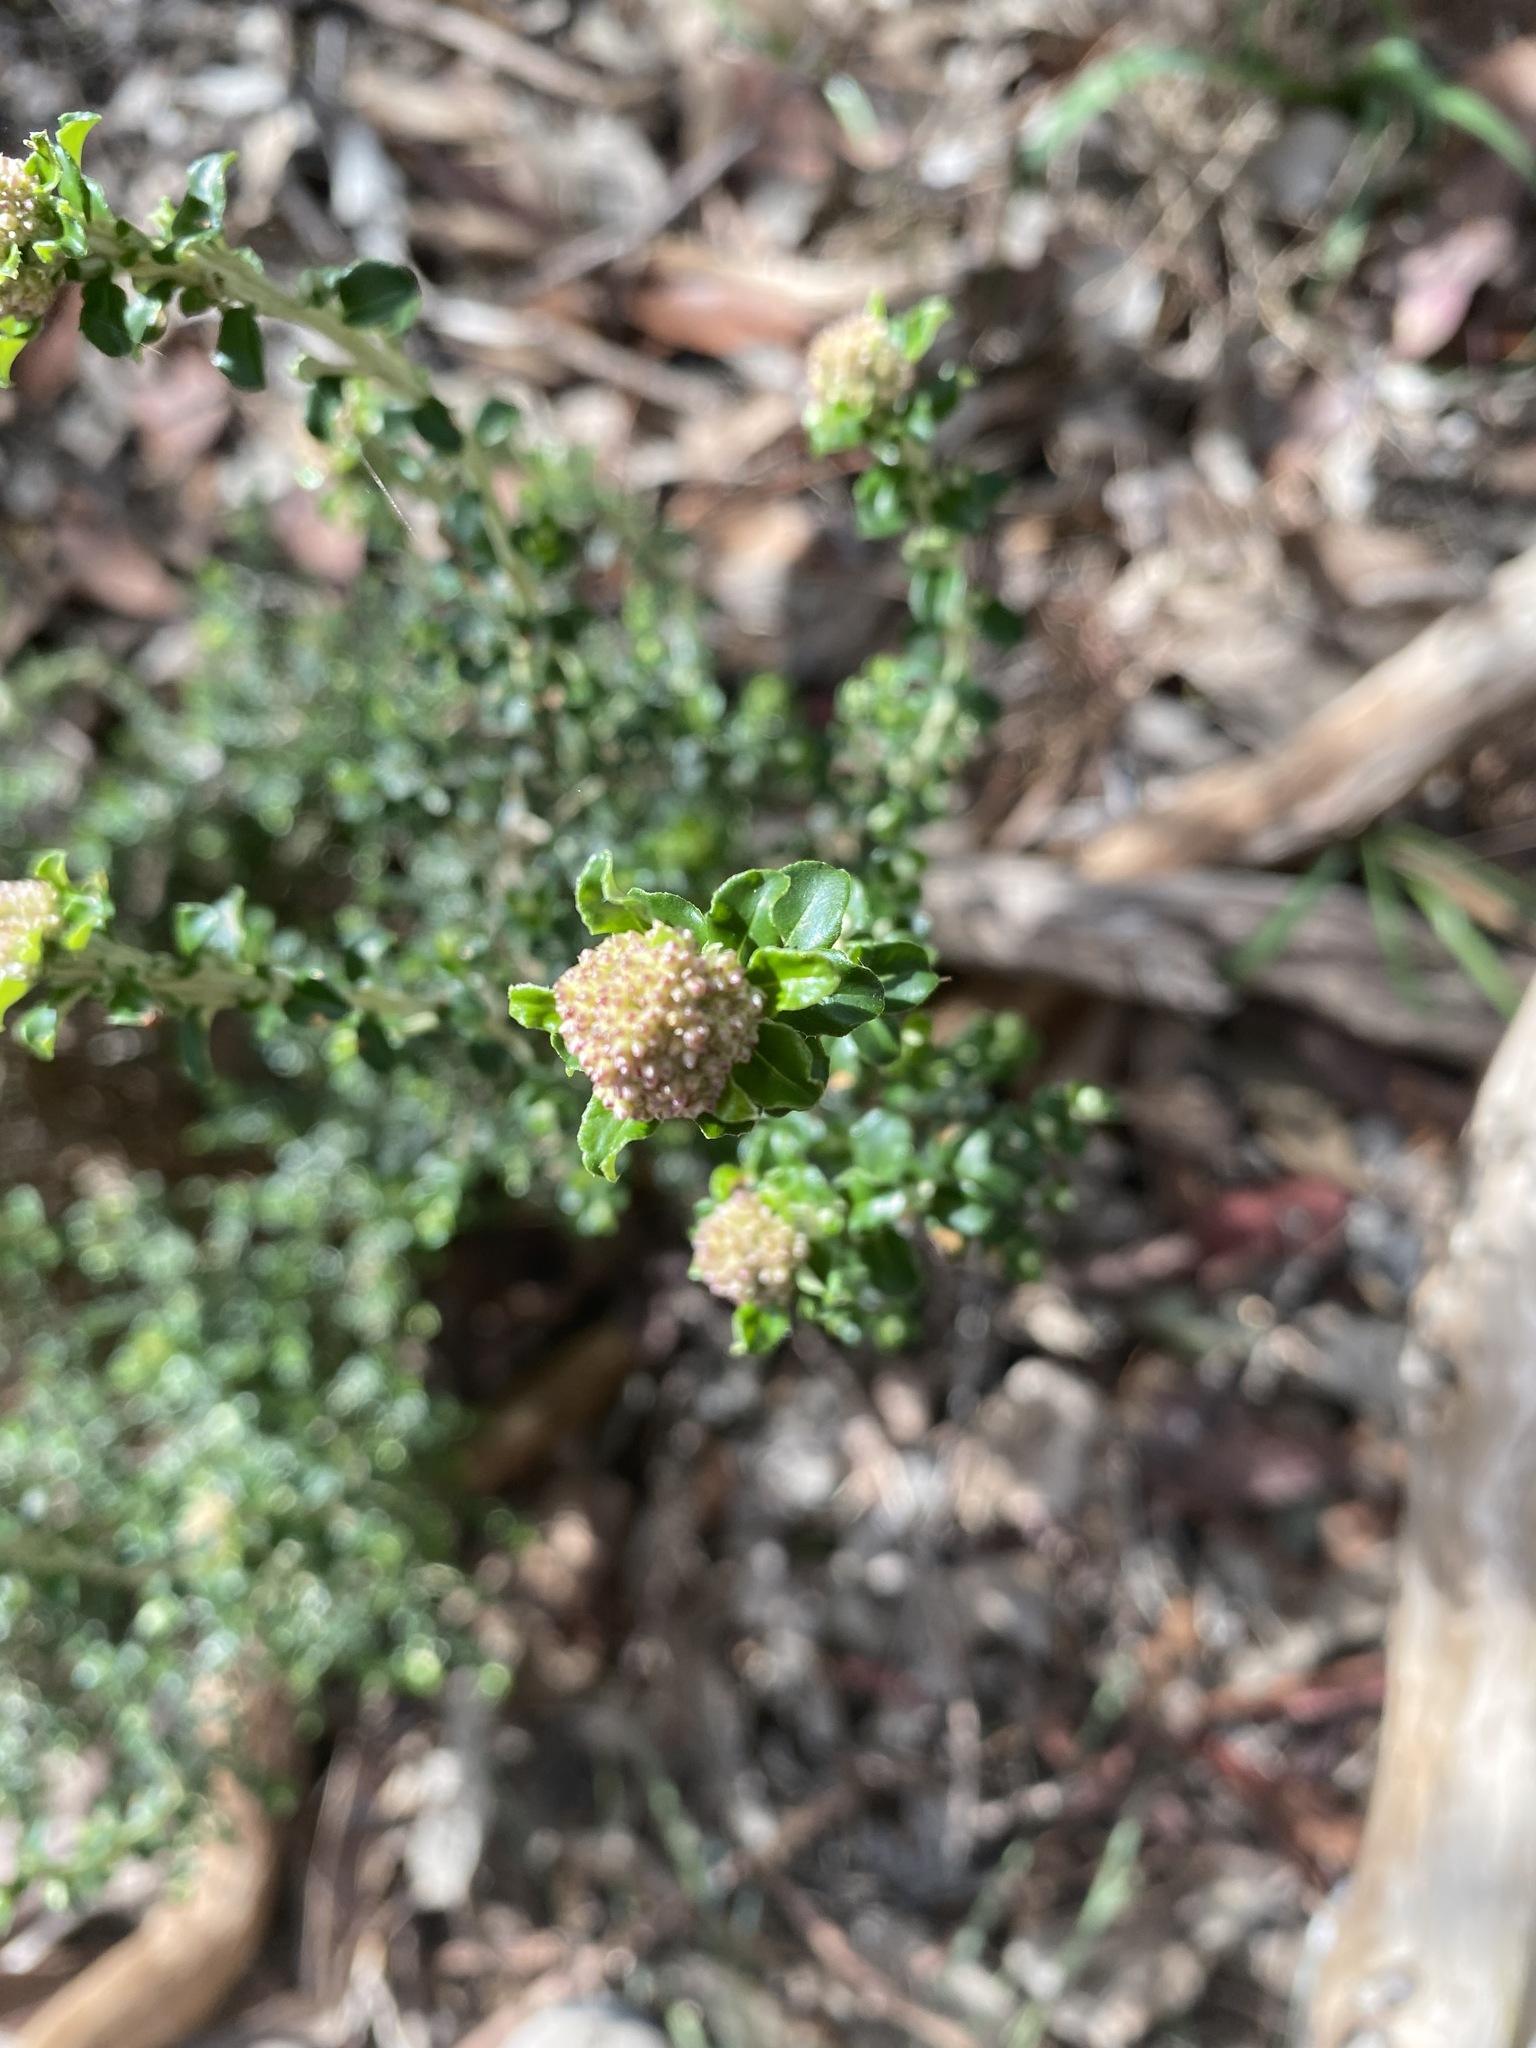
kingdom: Plantae
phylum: Tracheophyta
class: Magnoliopsida
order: Asterales
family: Asteraceae
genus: Ozothamnus
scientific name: Ozothamnus obcordatus
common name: Grey everlasting
